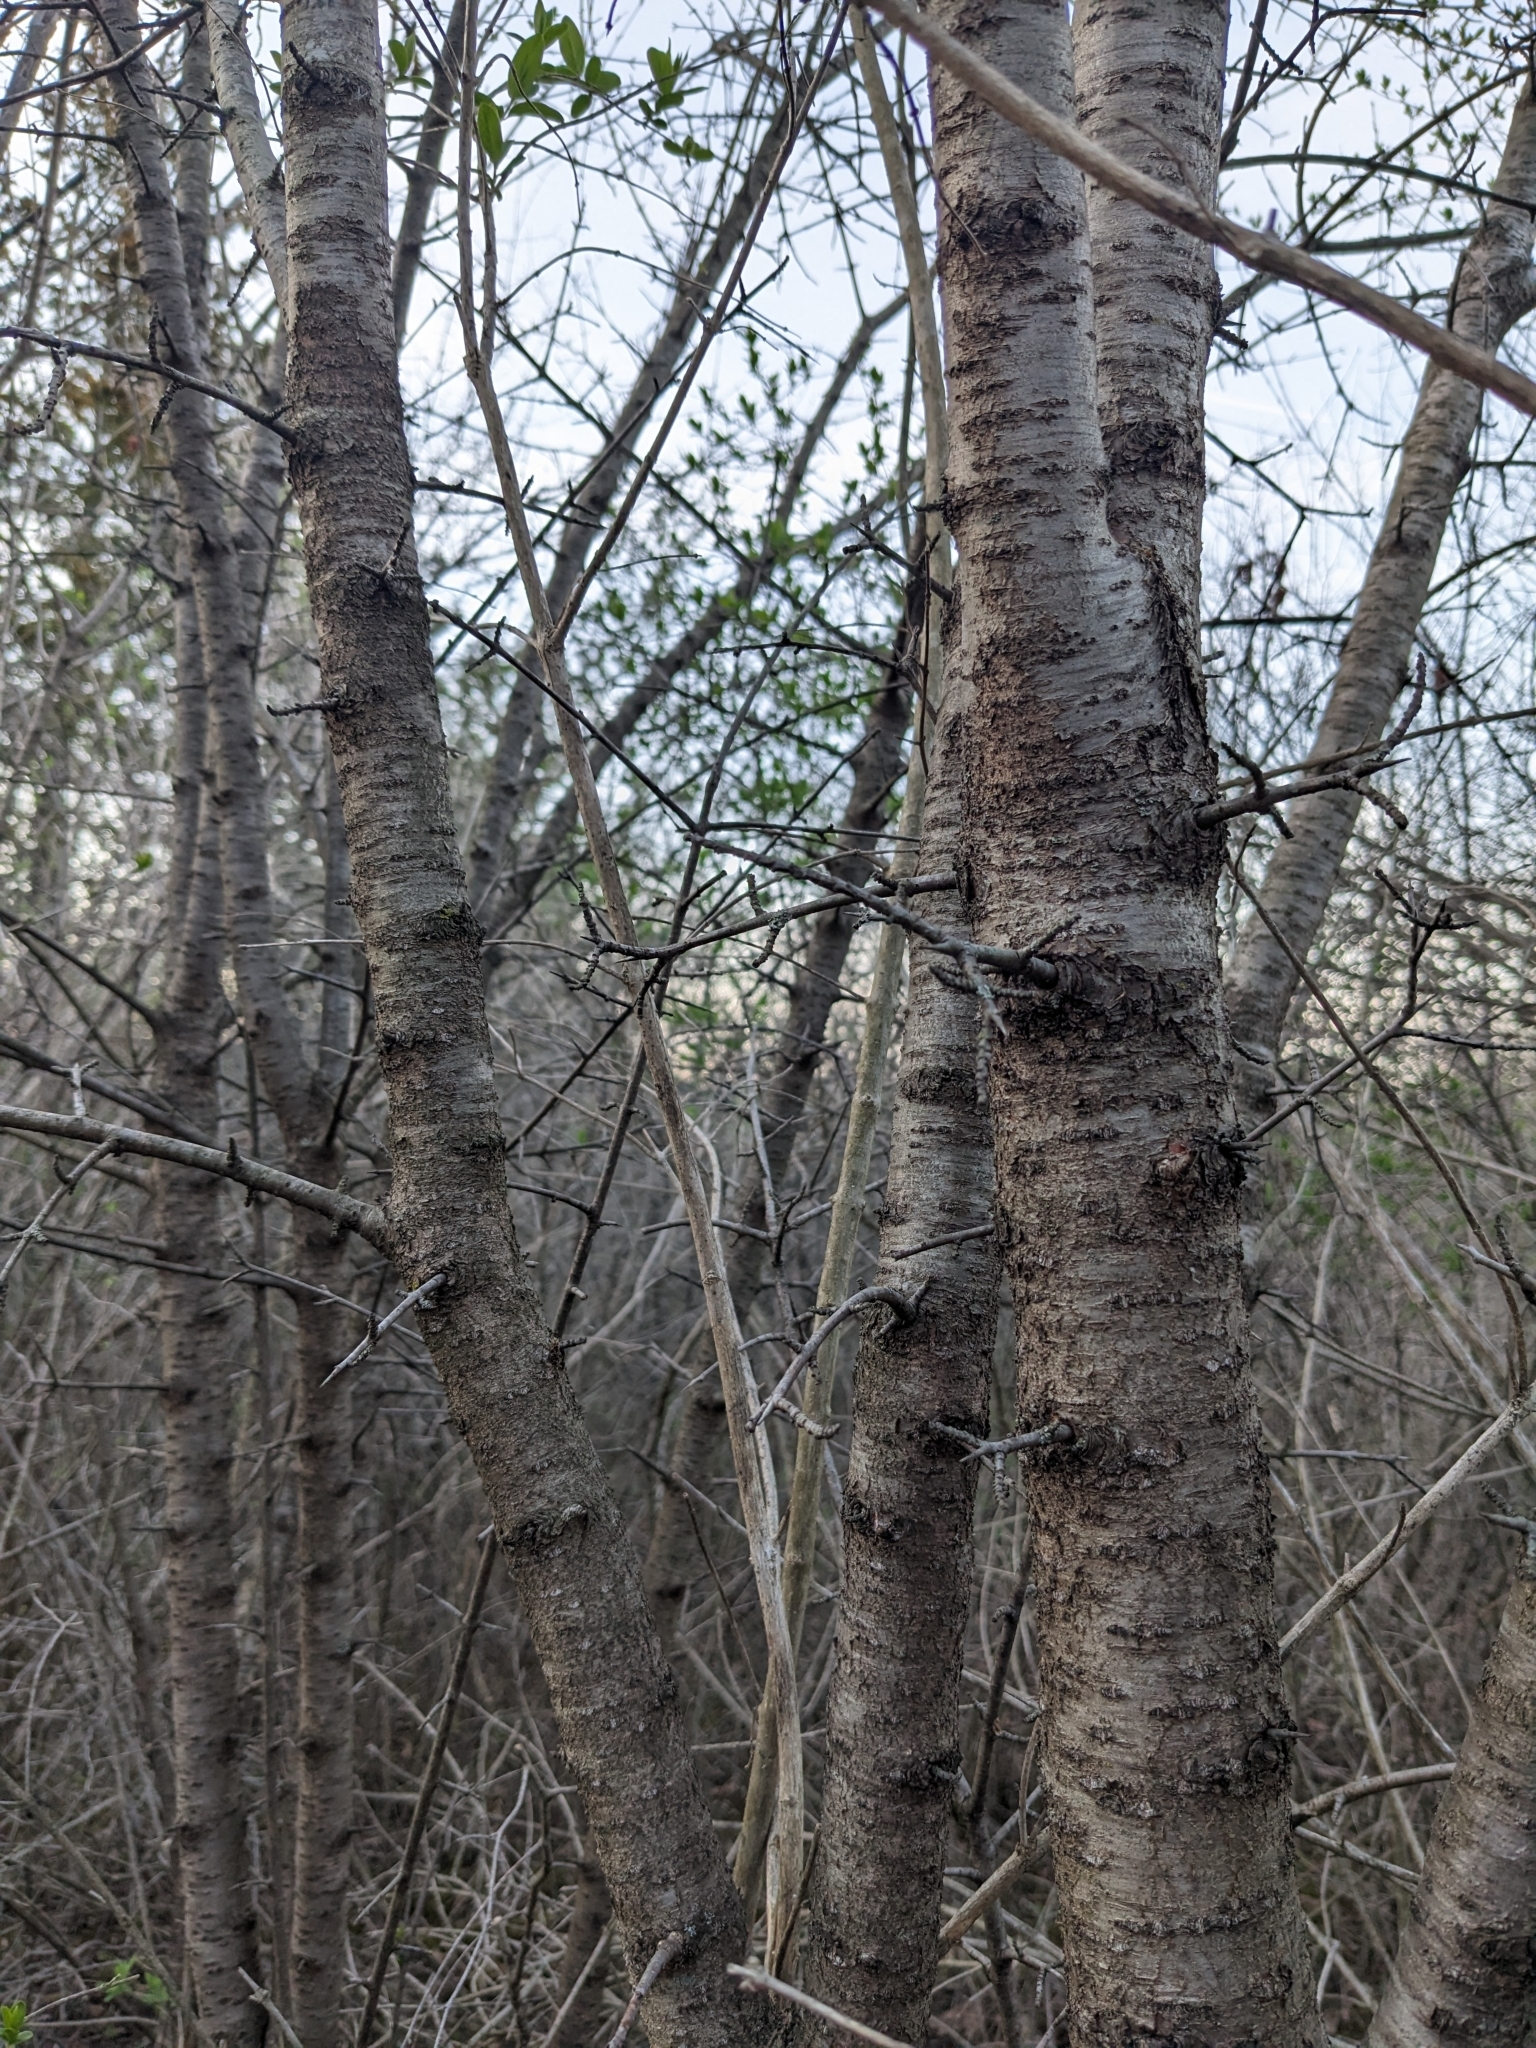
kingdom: Plantae
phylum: Tracheophyta
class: Magnoliopsida
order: Rosales
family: Rhamnaceae
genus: Rhamnus
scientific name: Rhamnus cathartica
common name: Common buckthorn
